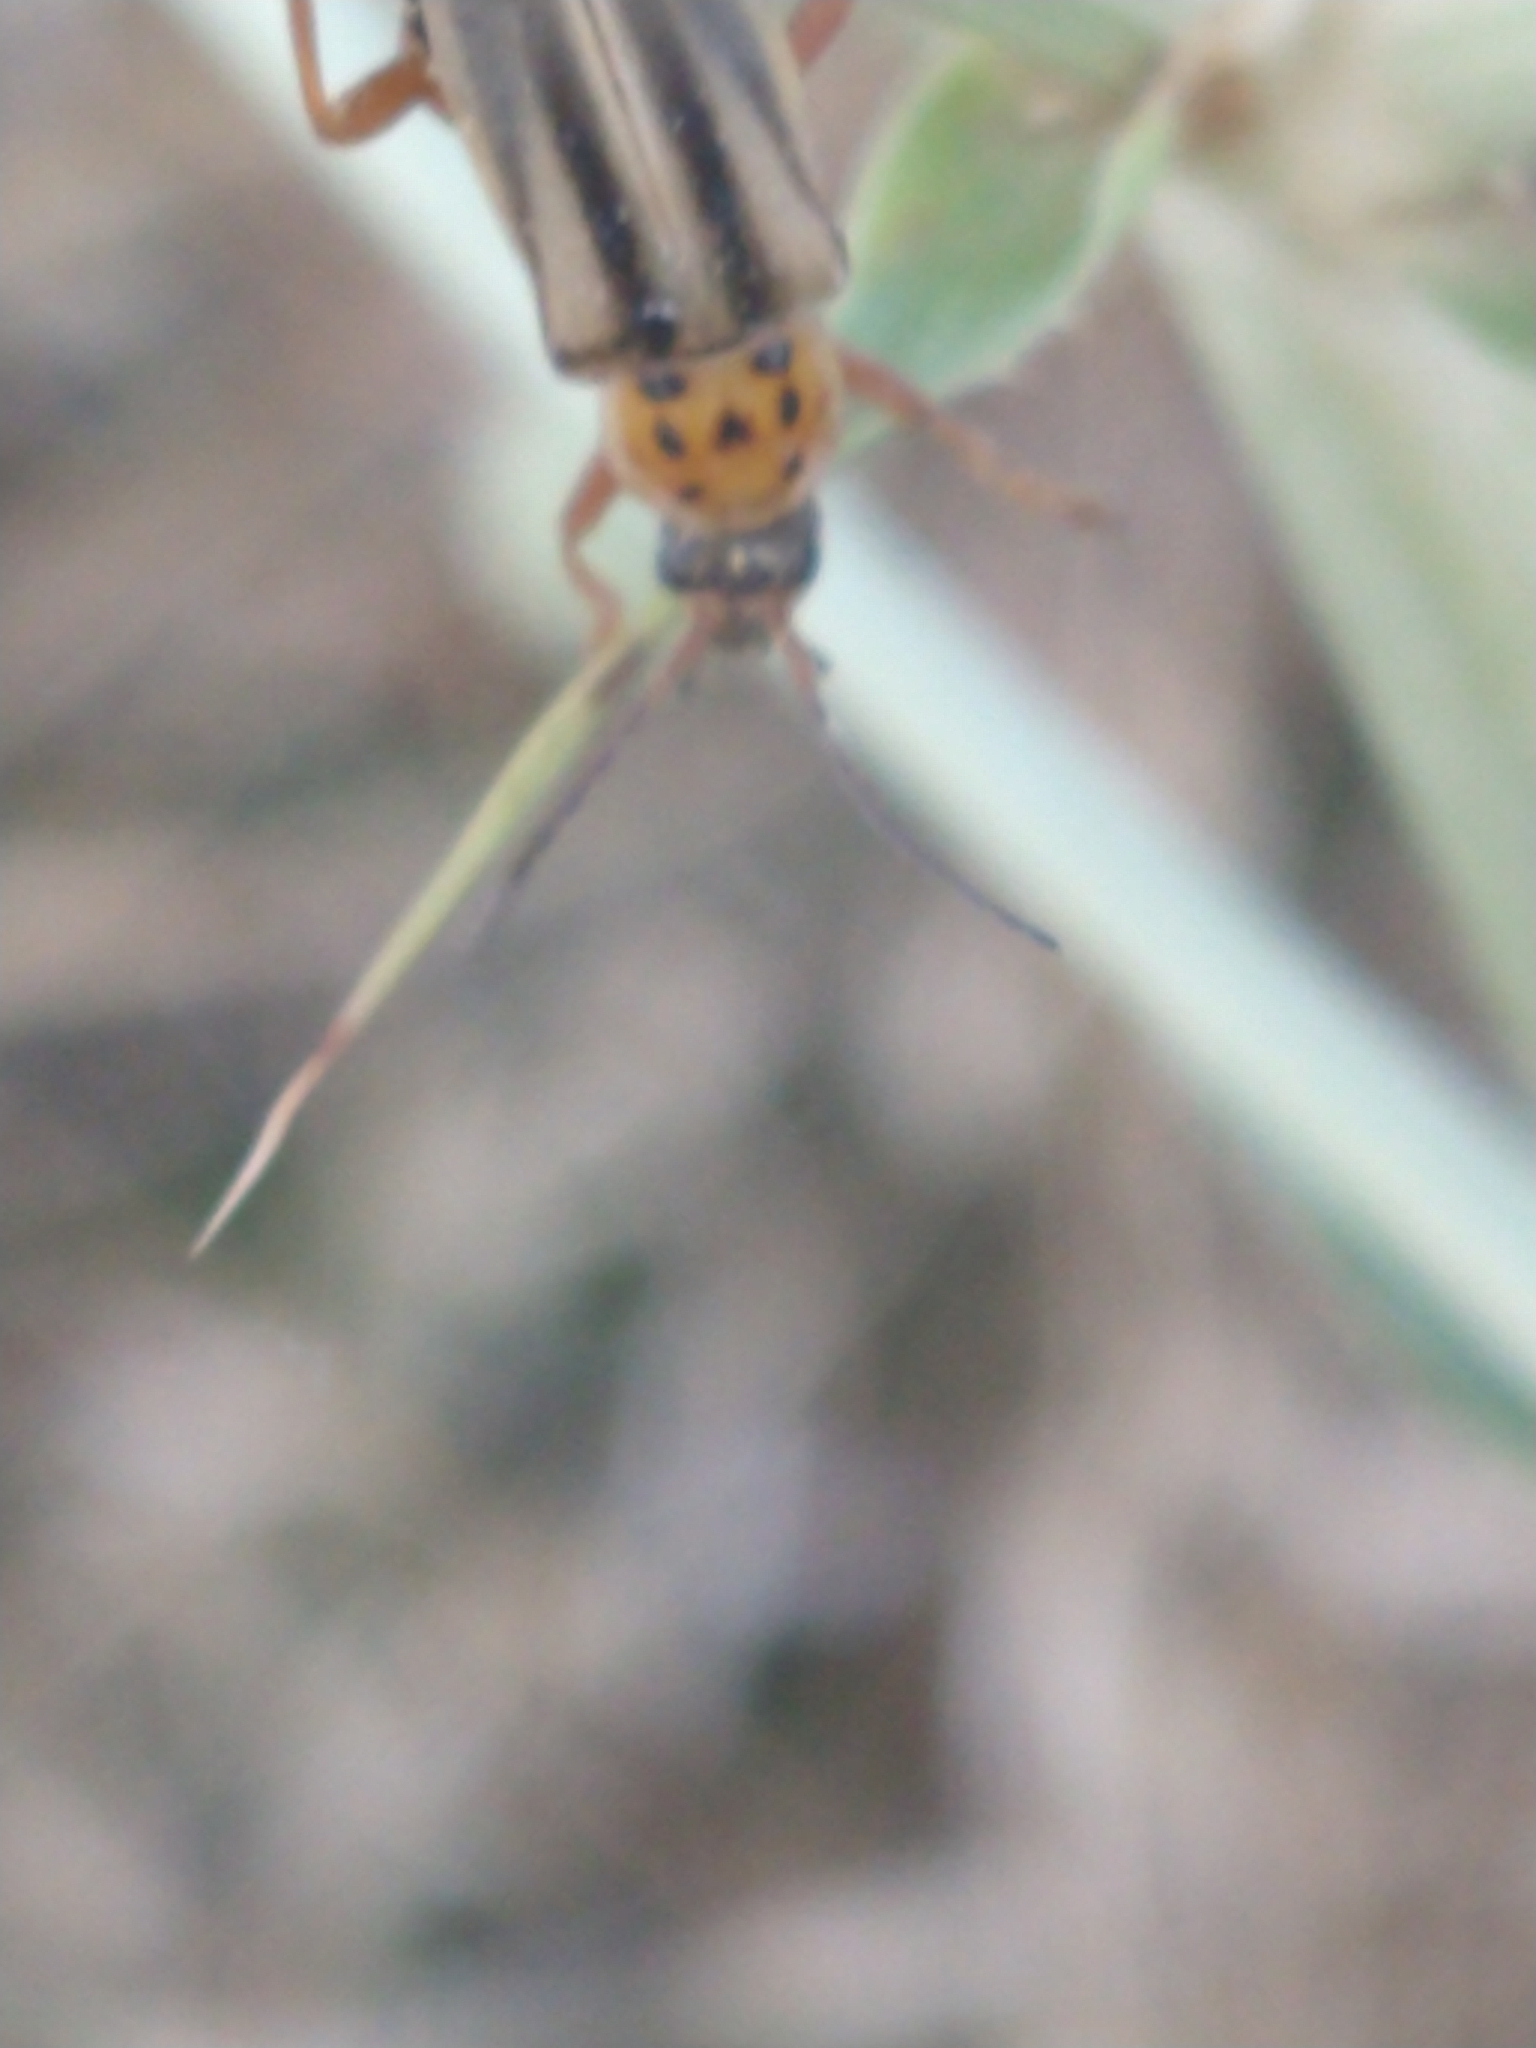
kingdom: Animalia
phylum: Arthropoda
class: Insecta
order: Coleoptera
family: Cantharidae
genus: Chauliognathus
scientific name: Chauliognathus
